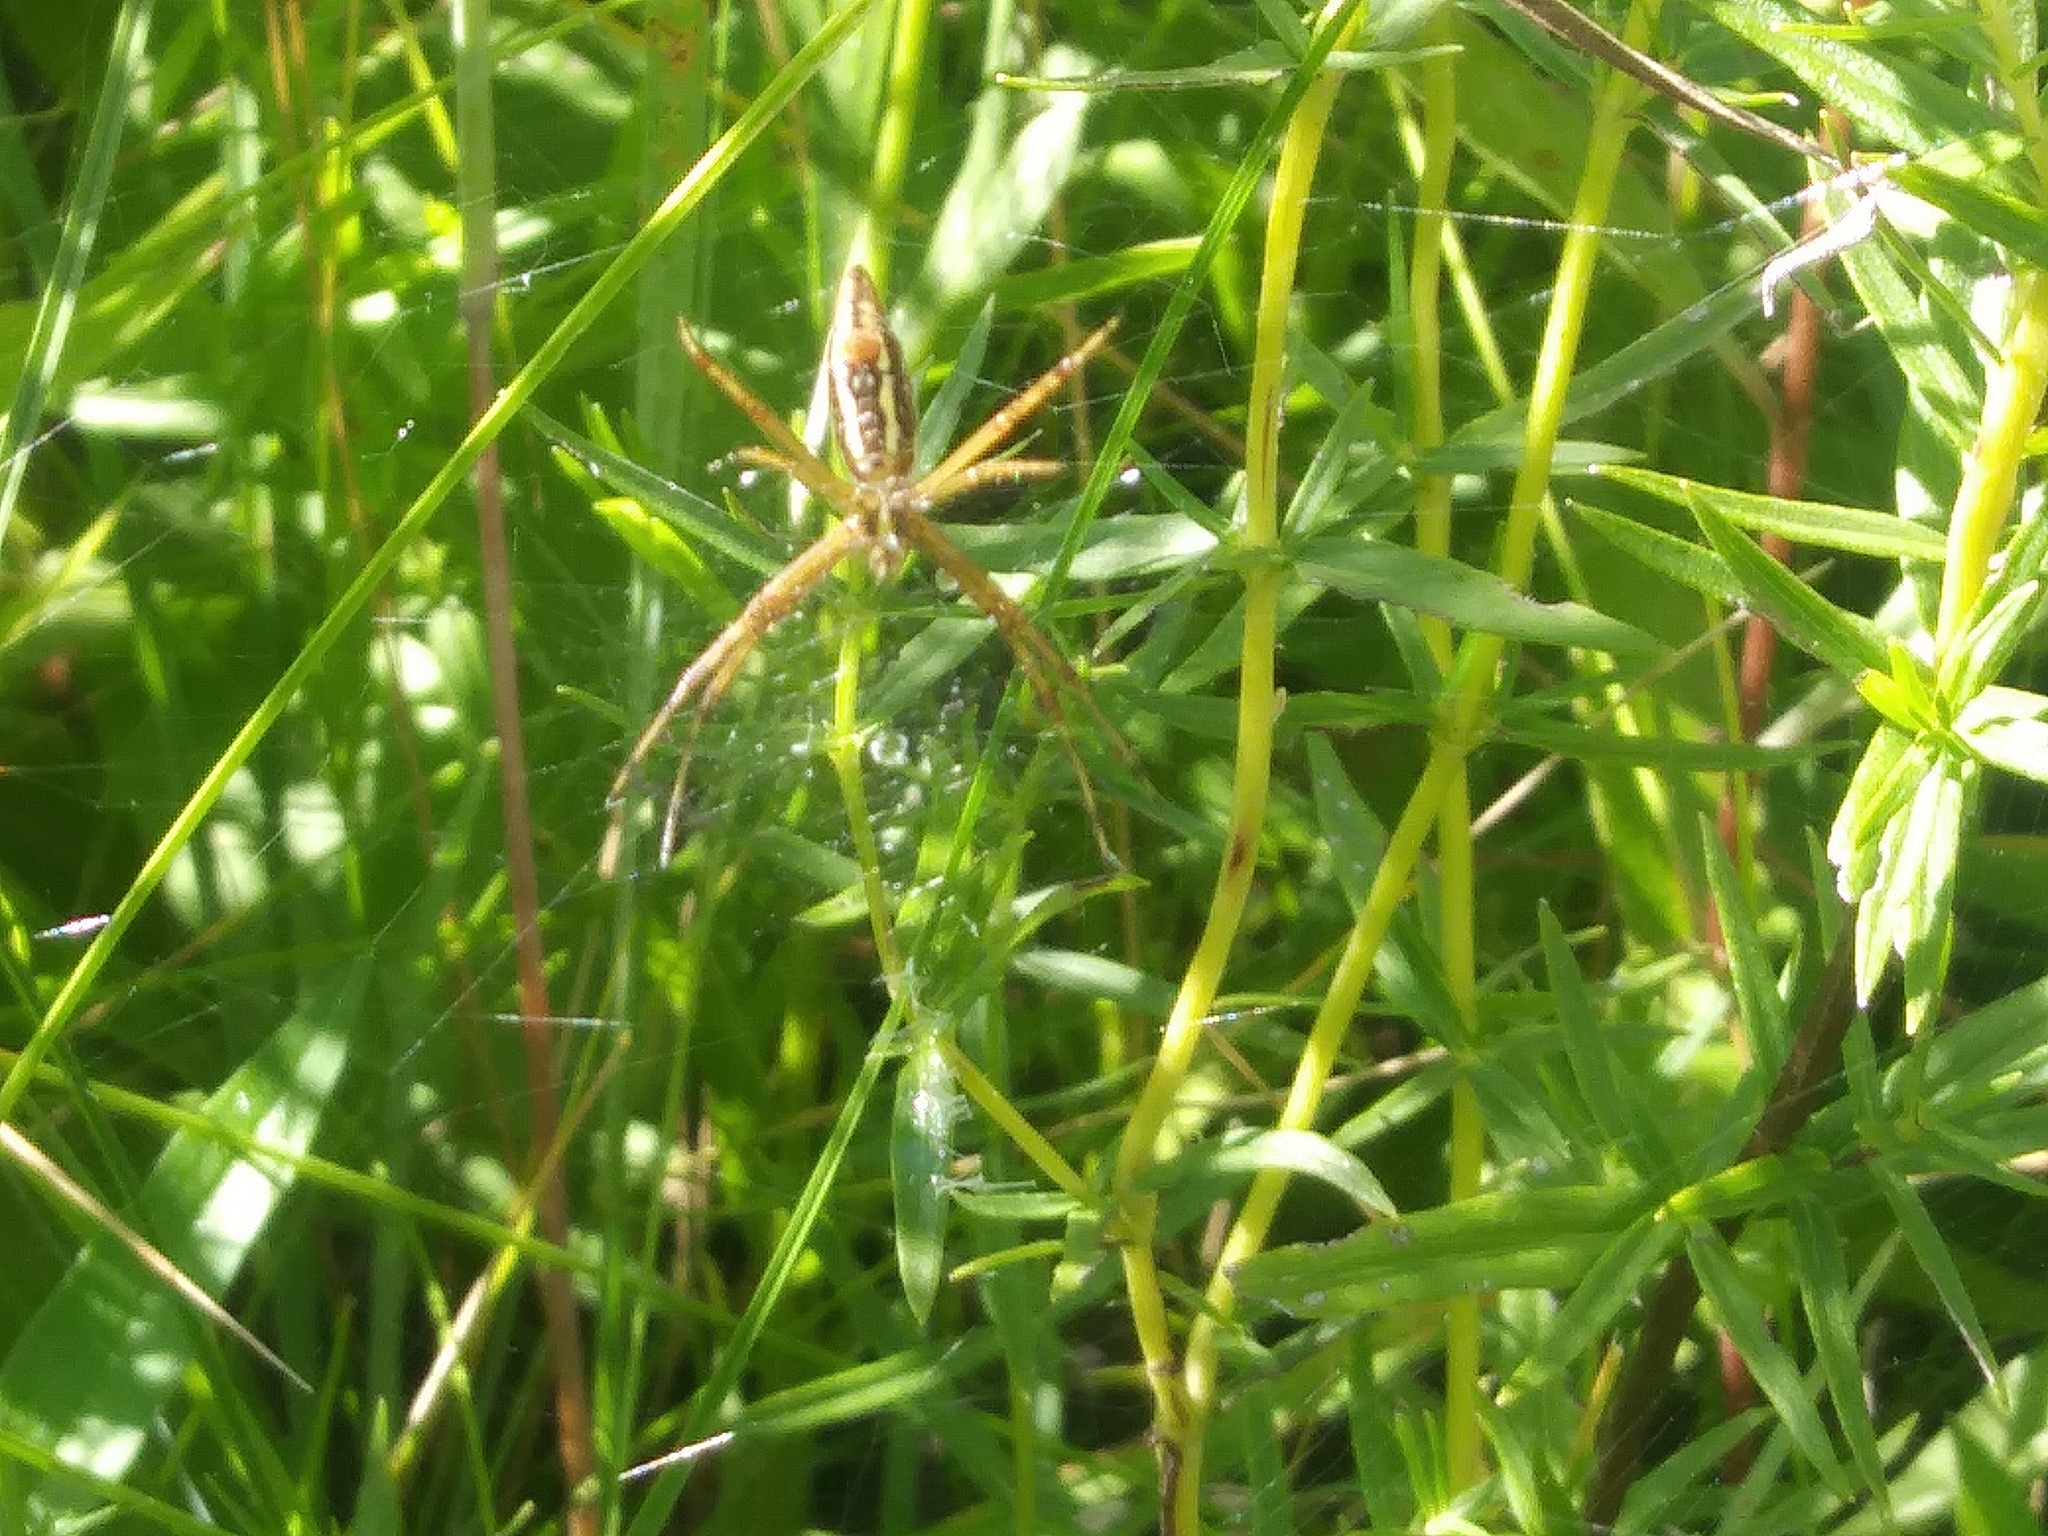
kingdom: Animalia
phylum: Arthropoda
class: Arachnida
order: Araneae
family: Araneidae
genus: Argiope
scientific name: Argiope trifasciata
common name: Banded garden spider
